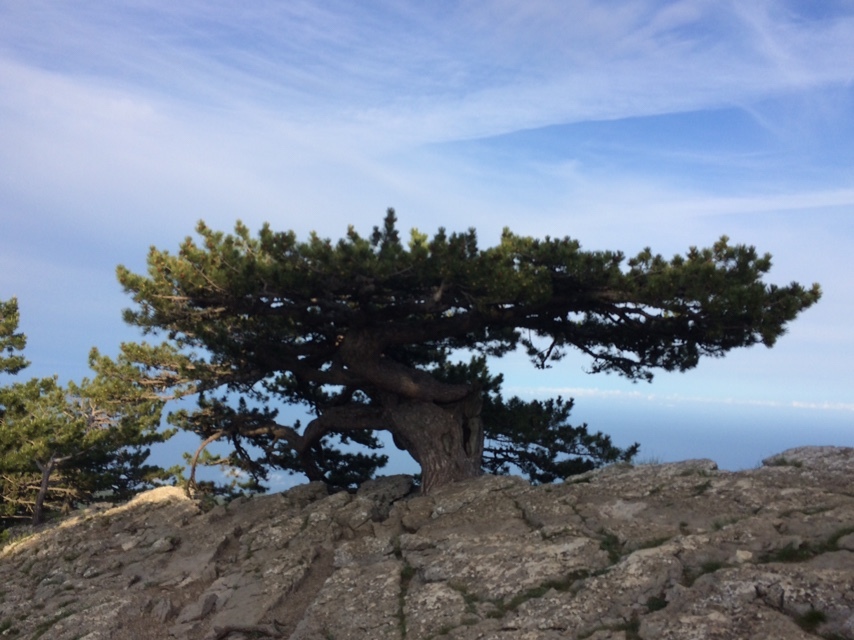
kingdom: Plantae
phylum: Tracheophyta
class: Pinopsida
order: Pinales
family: Pinaceae
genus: Pinus
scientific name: Pinus nigra
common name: Austrian pine
